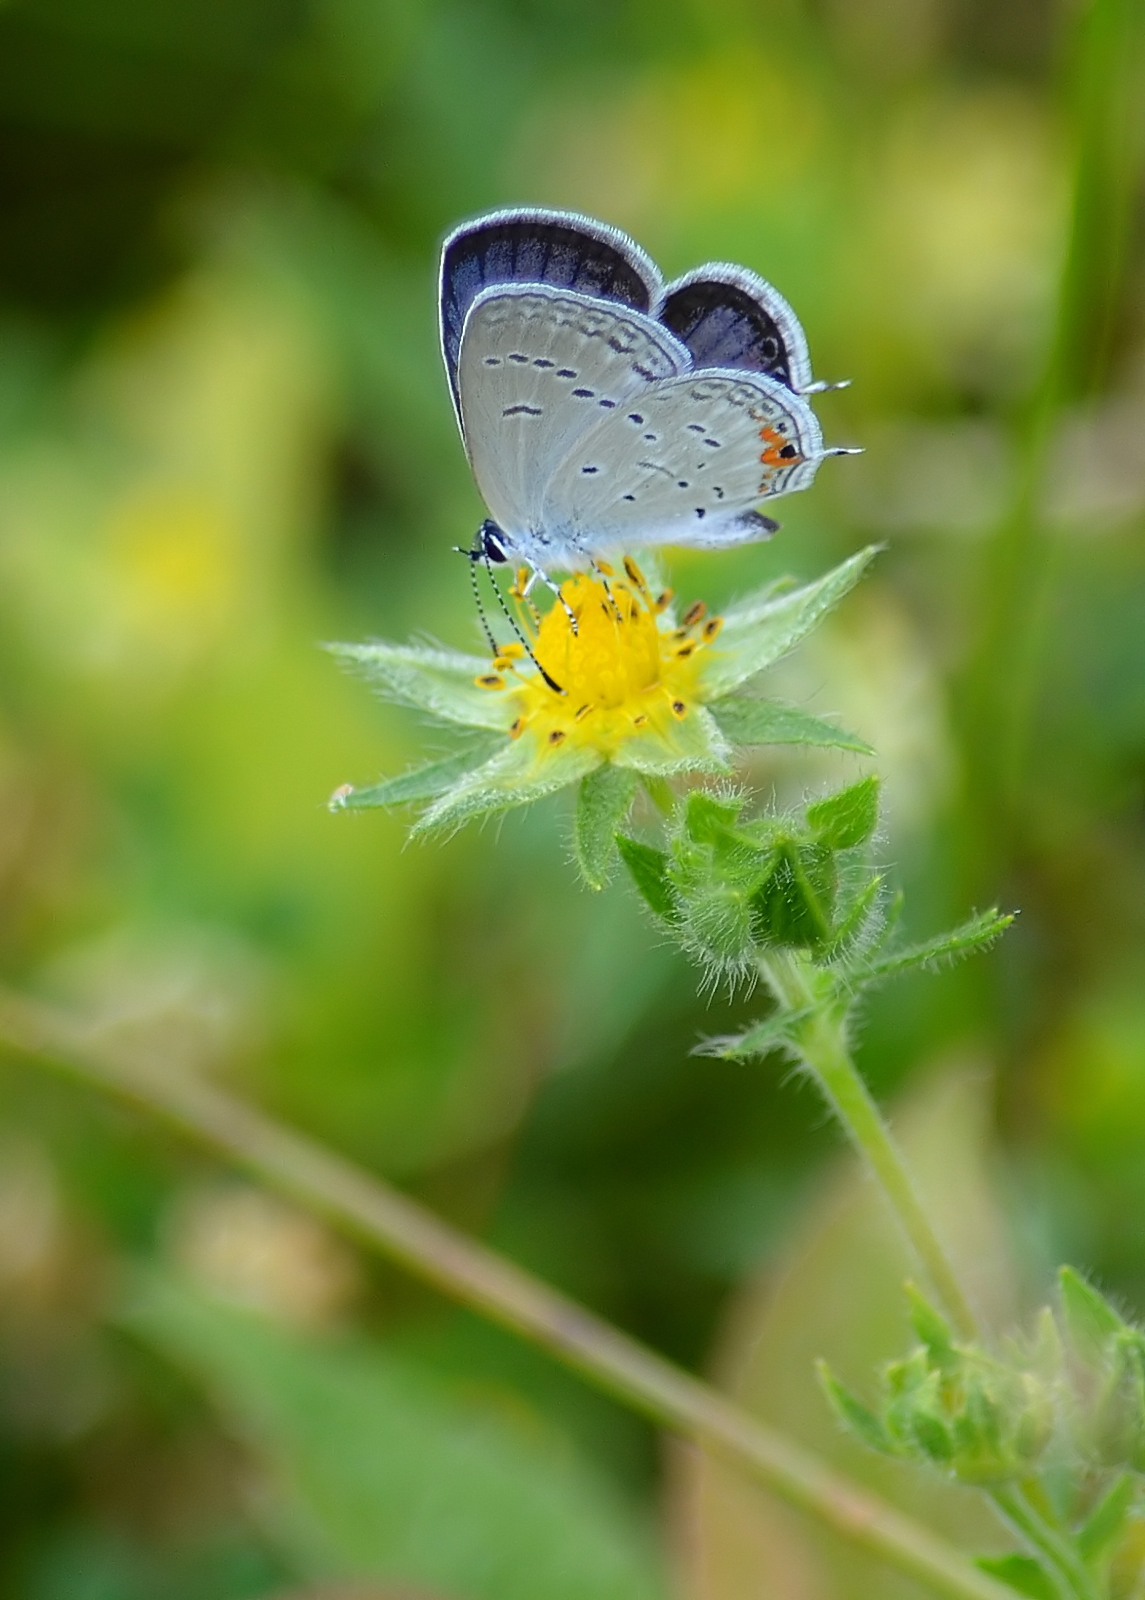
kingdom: Animalia
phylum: Arthropoda
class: Insecta
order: Lepidoptera
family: Lycaenidae
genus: Elkalyce
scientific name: Elkalyce comyntas
